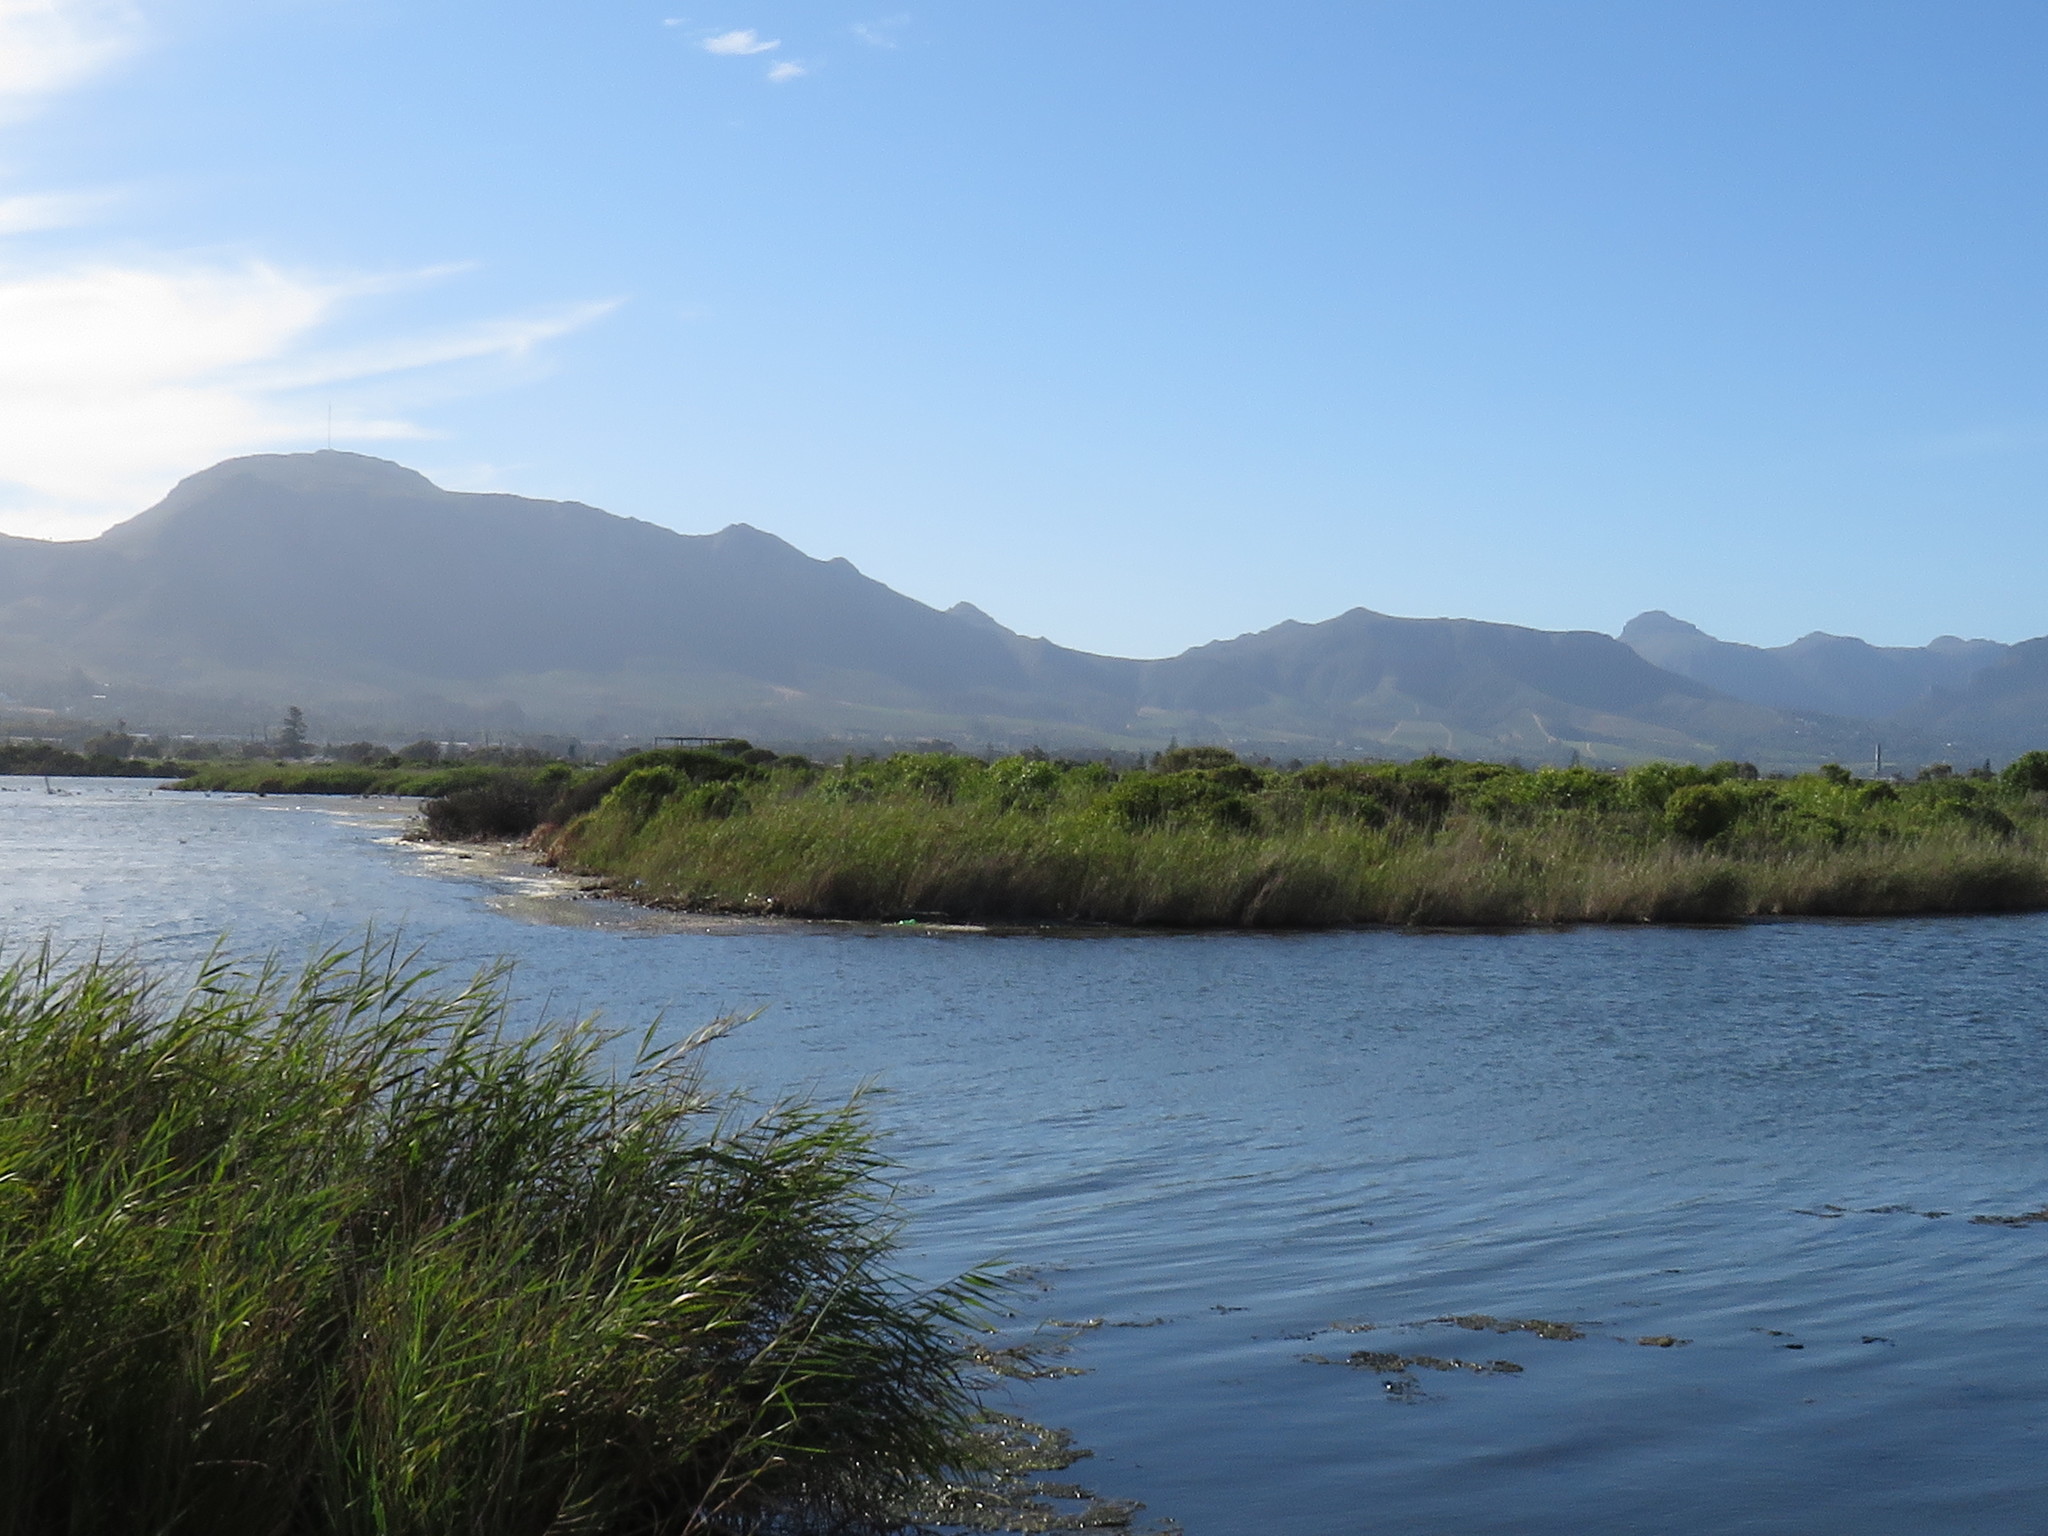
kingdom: Plantae
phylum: Tracheophyta
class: Magnoliopsida
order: Fabales
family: Fabaceae
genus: Acacia
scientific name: Acacia saligna
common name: Orange wattle
